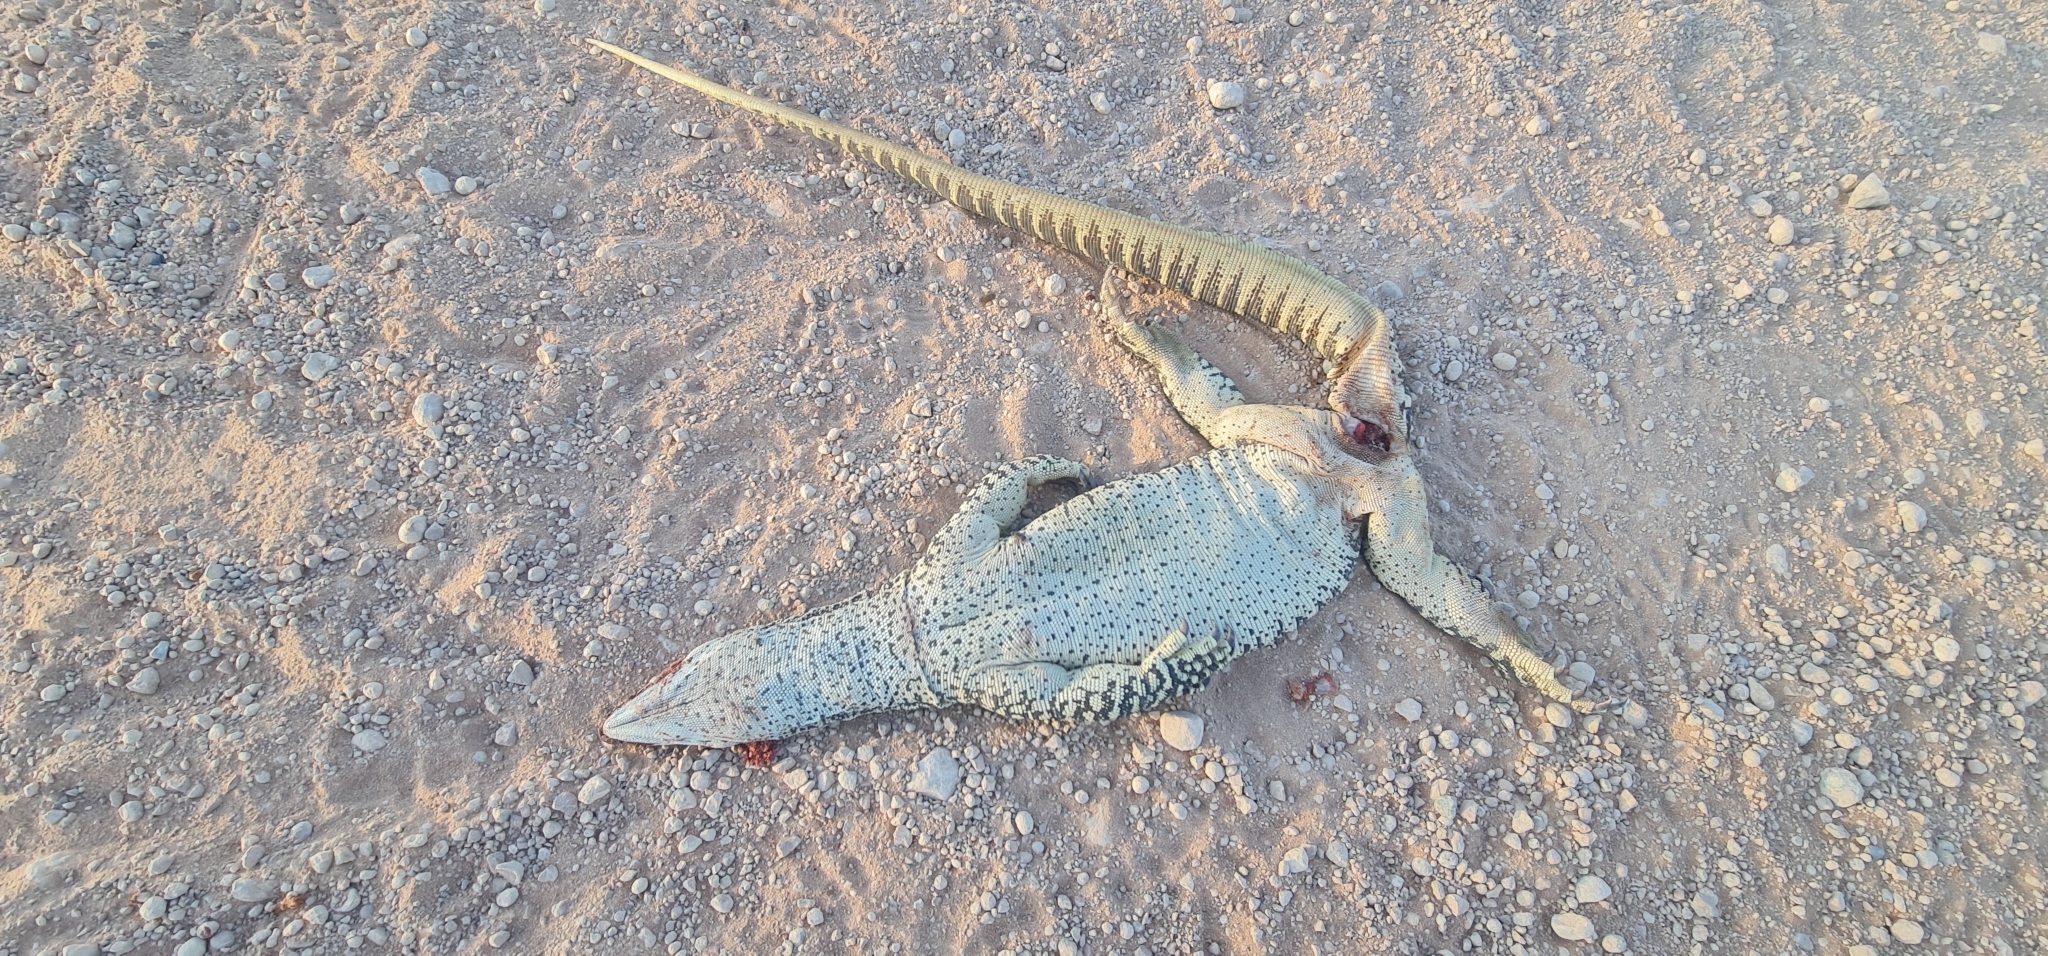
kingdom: Animalia
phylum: Chordata
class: Squamata
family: Varanidae
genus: Varanus
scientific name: Varanus gouldii
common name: Gould's goanna
